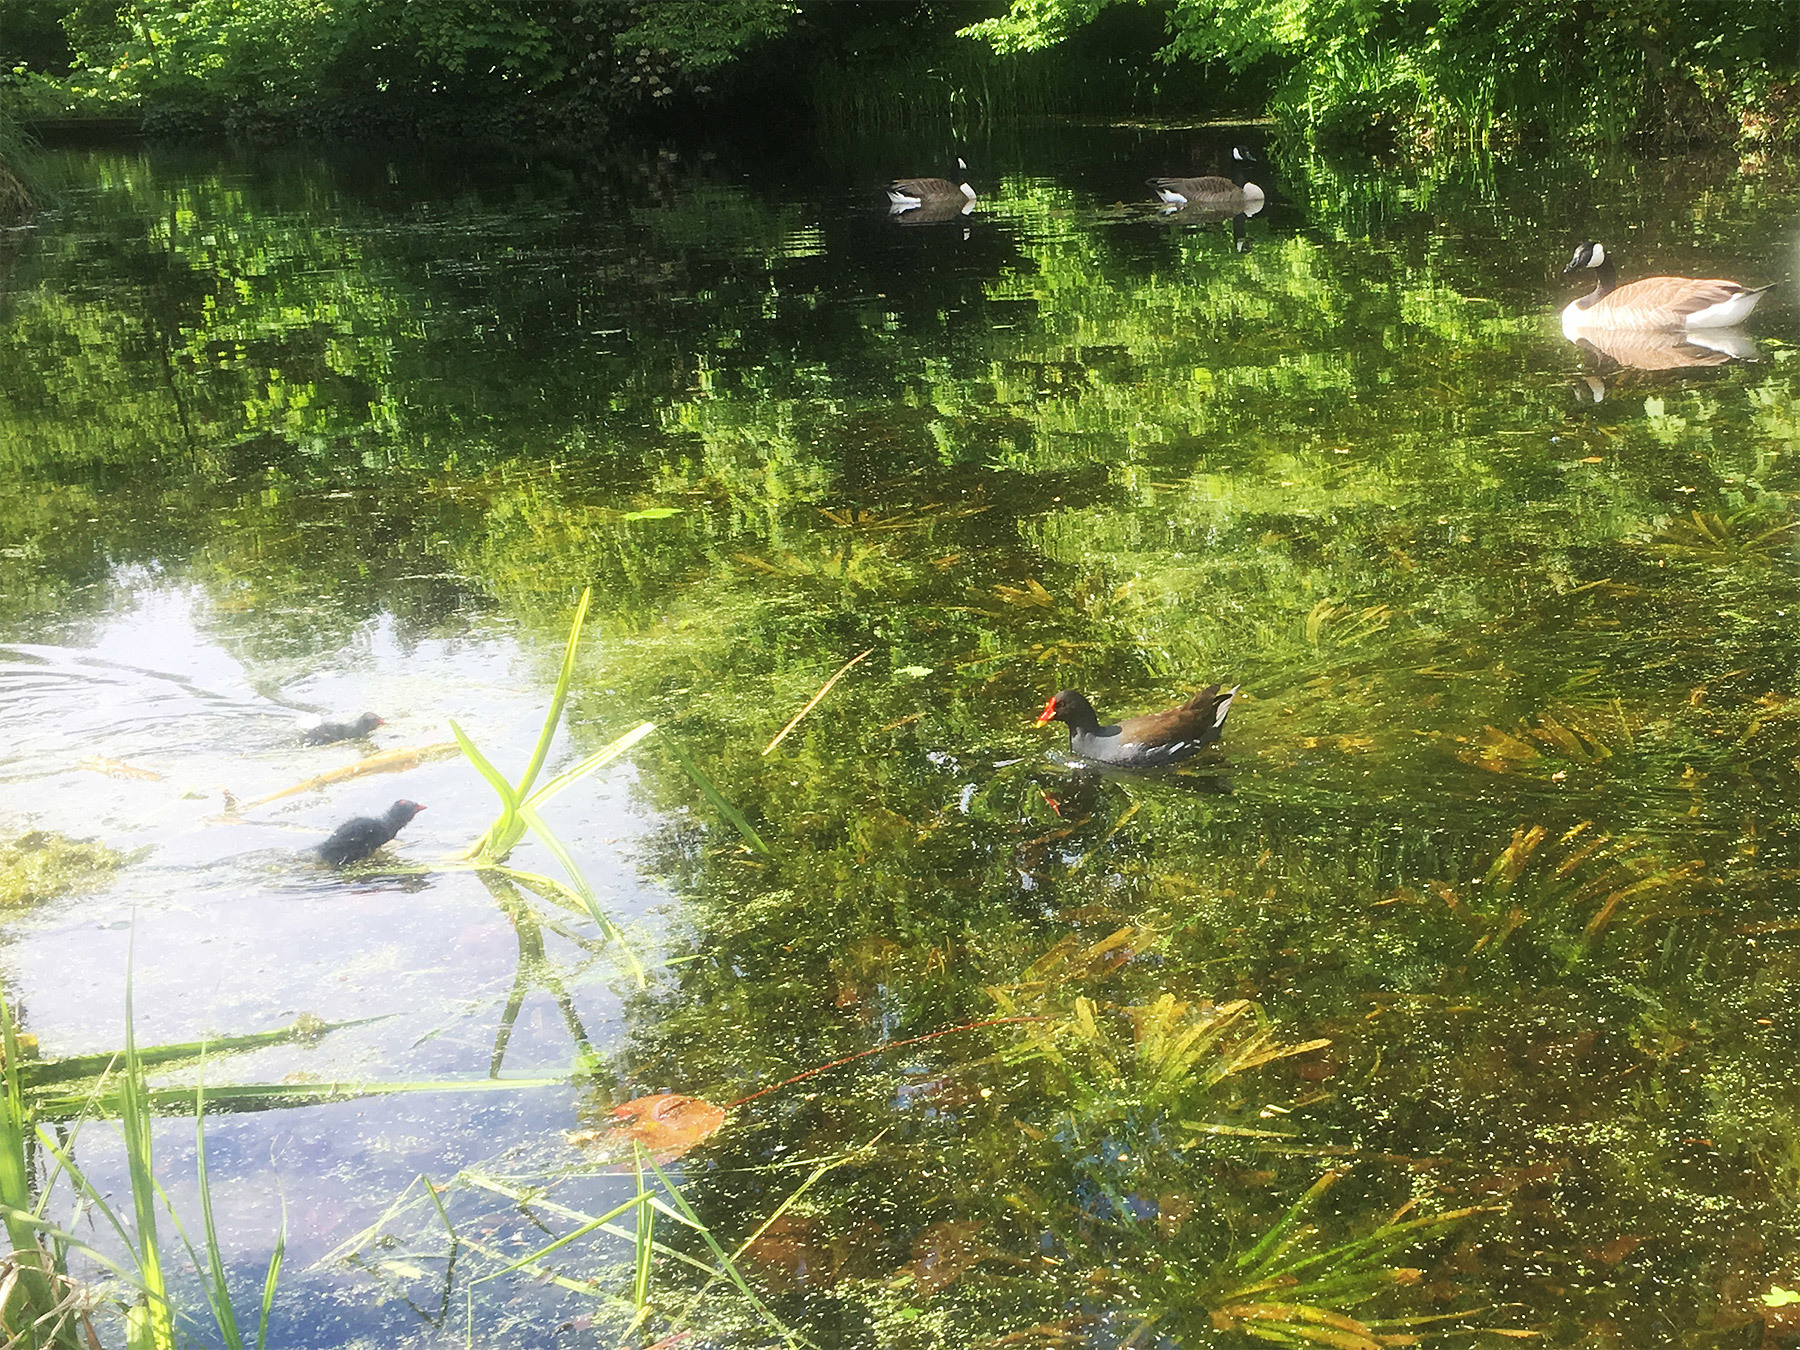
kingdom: Animalia
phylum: Chordata
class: Aves
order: Gruiformes
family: Rallidae
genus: Gallinula
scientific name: Gallinula chloropus
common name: Common moorhen
